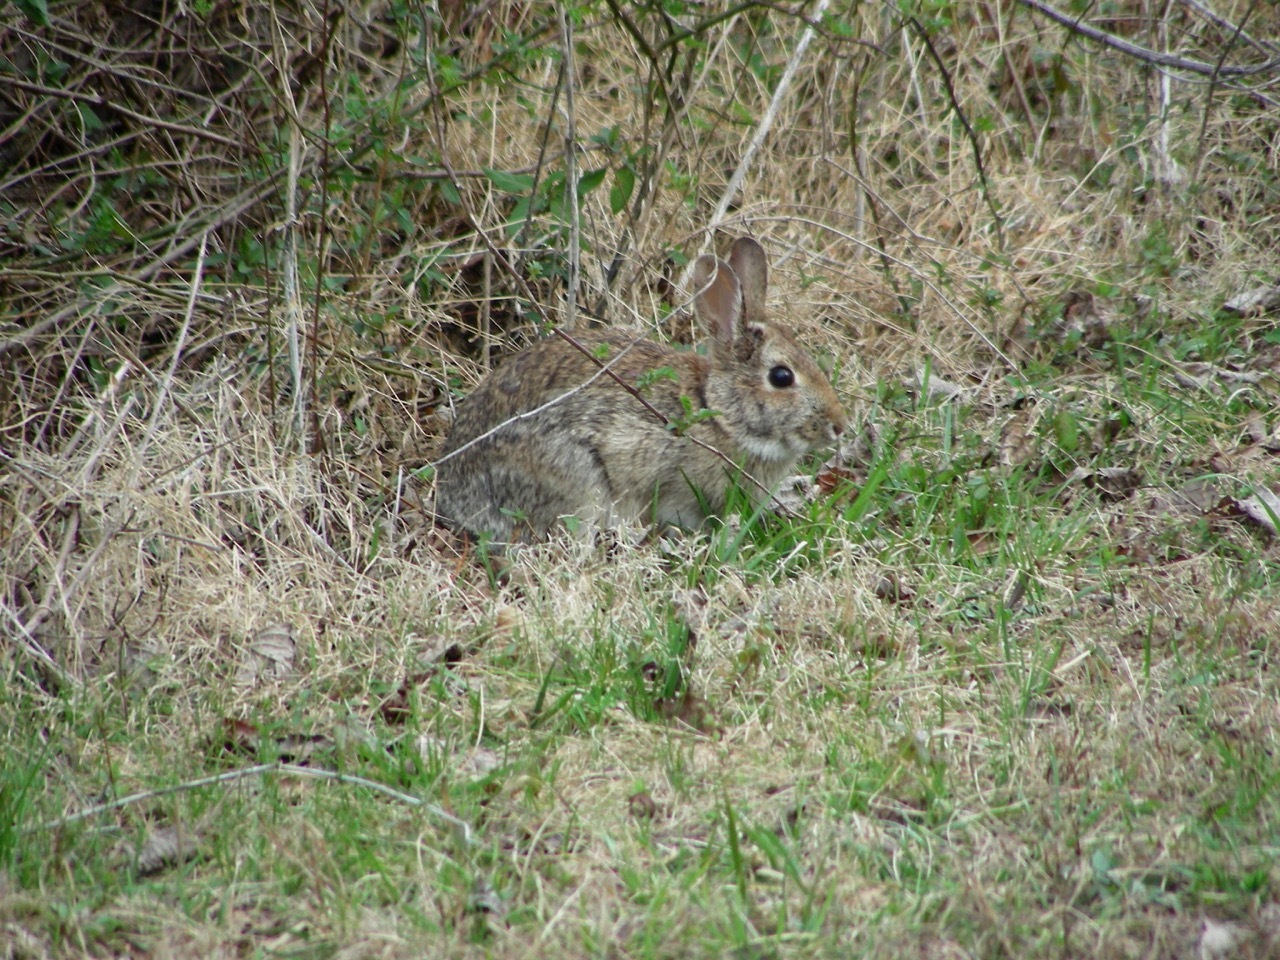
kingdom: Animalia
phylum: Chordata
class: Mammalia
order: Lagomorpha
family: Leporidae
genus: Sylvilagus
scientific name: Sylvilagus floridanus
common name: Eastern cottontail
